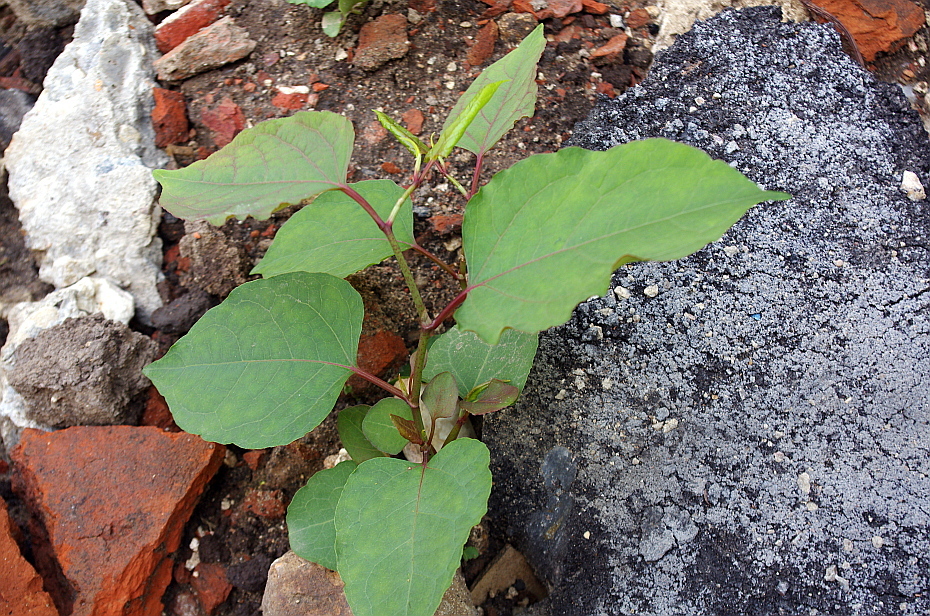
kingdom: Plantae
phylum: Tracheophyta
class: Magnoliopsida
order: Caryophyllales
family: Polygonaceae
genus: Reynoutria
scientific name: Reynoutria bohemica
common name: Bohemian knotweed
